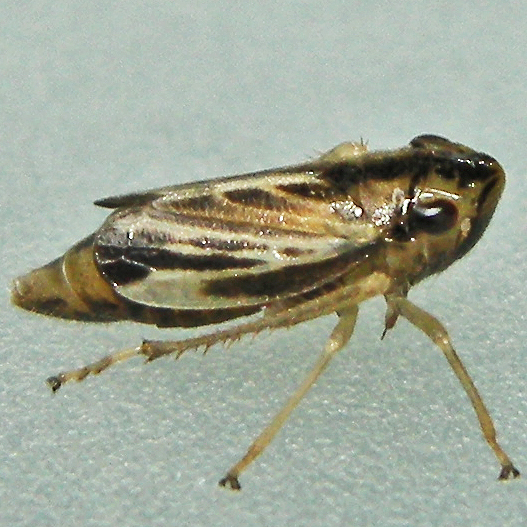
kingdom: Animalia
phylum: Arthropoda
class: Insecta
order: Hemiptera
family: Cicadellidae
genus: Evacanthus
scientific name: Evacanthus nigramericanus
